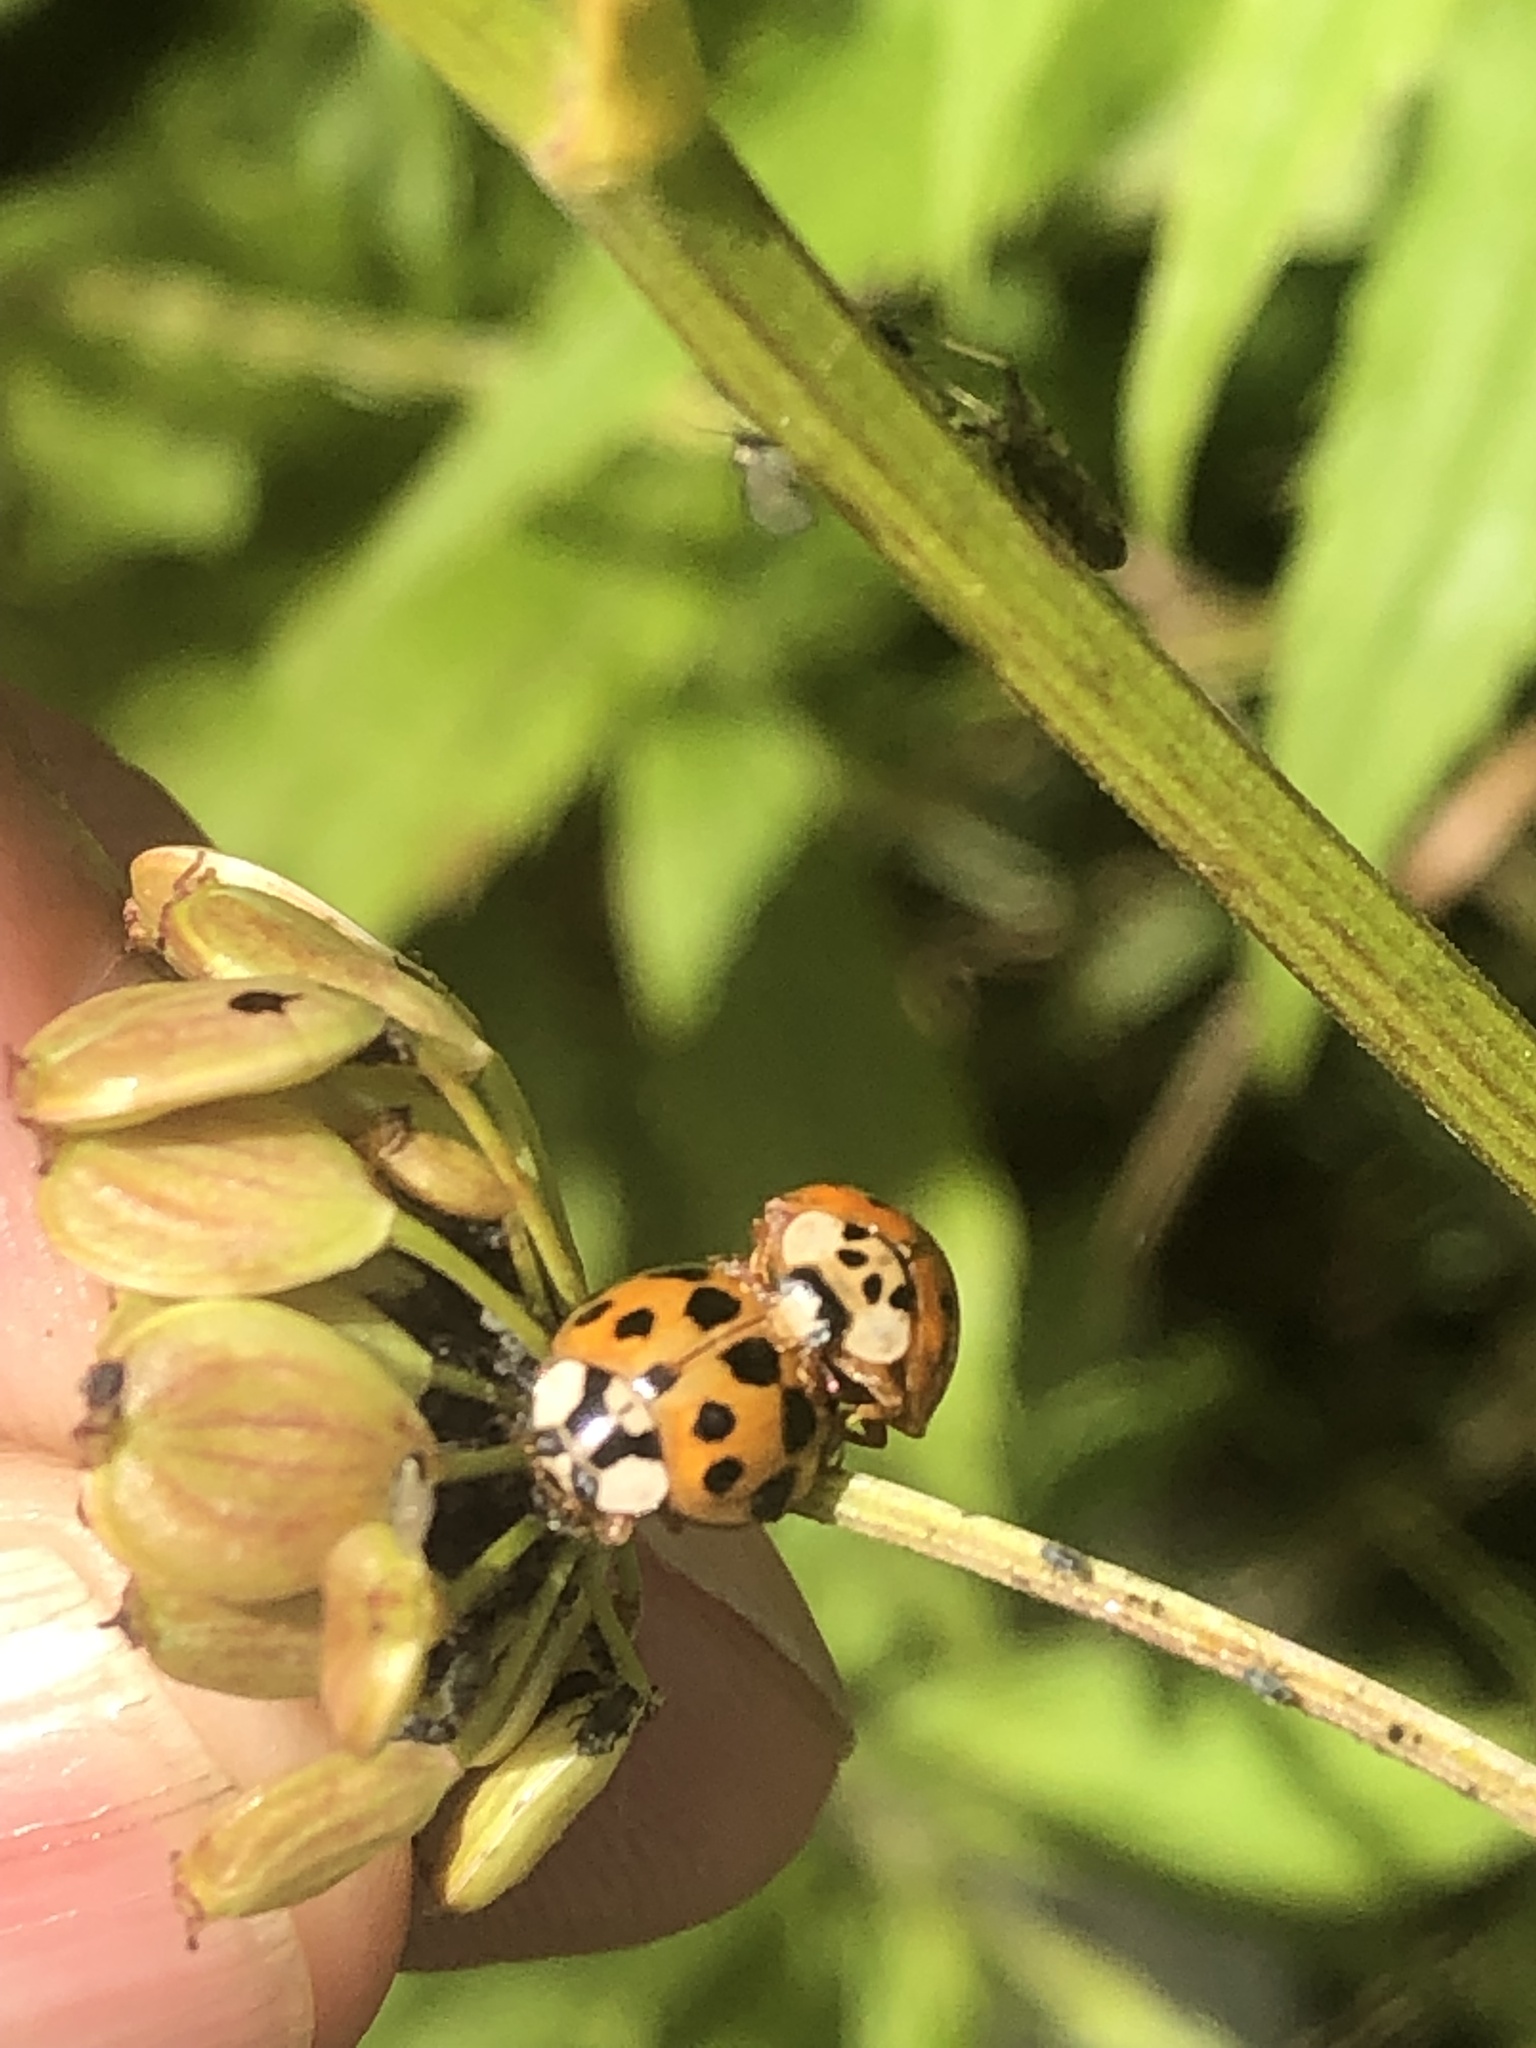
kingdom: Animalia
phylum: Arthropoda
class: Insecta
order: Coleoptera
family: Coccinellidae
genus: Harmonia
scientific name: Harmonia axyridis
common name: Harlequin ladybird
